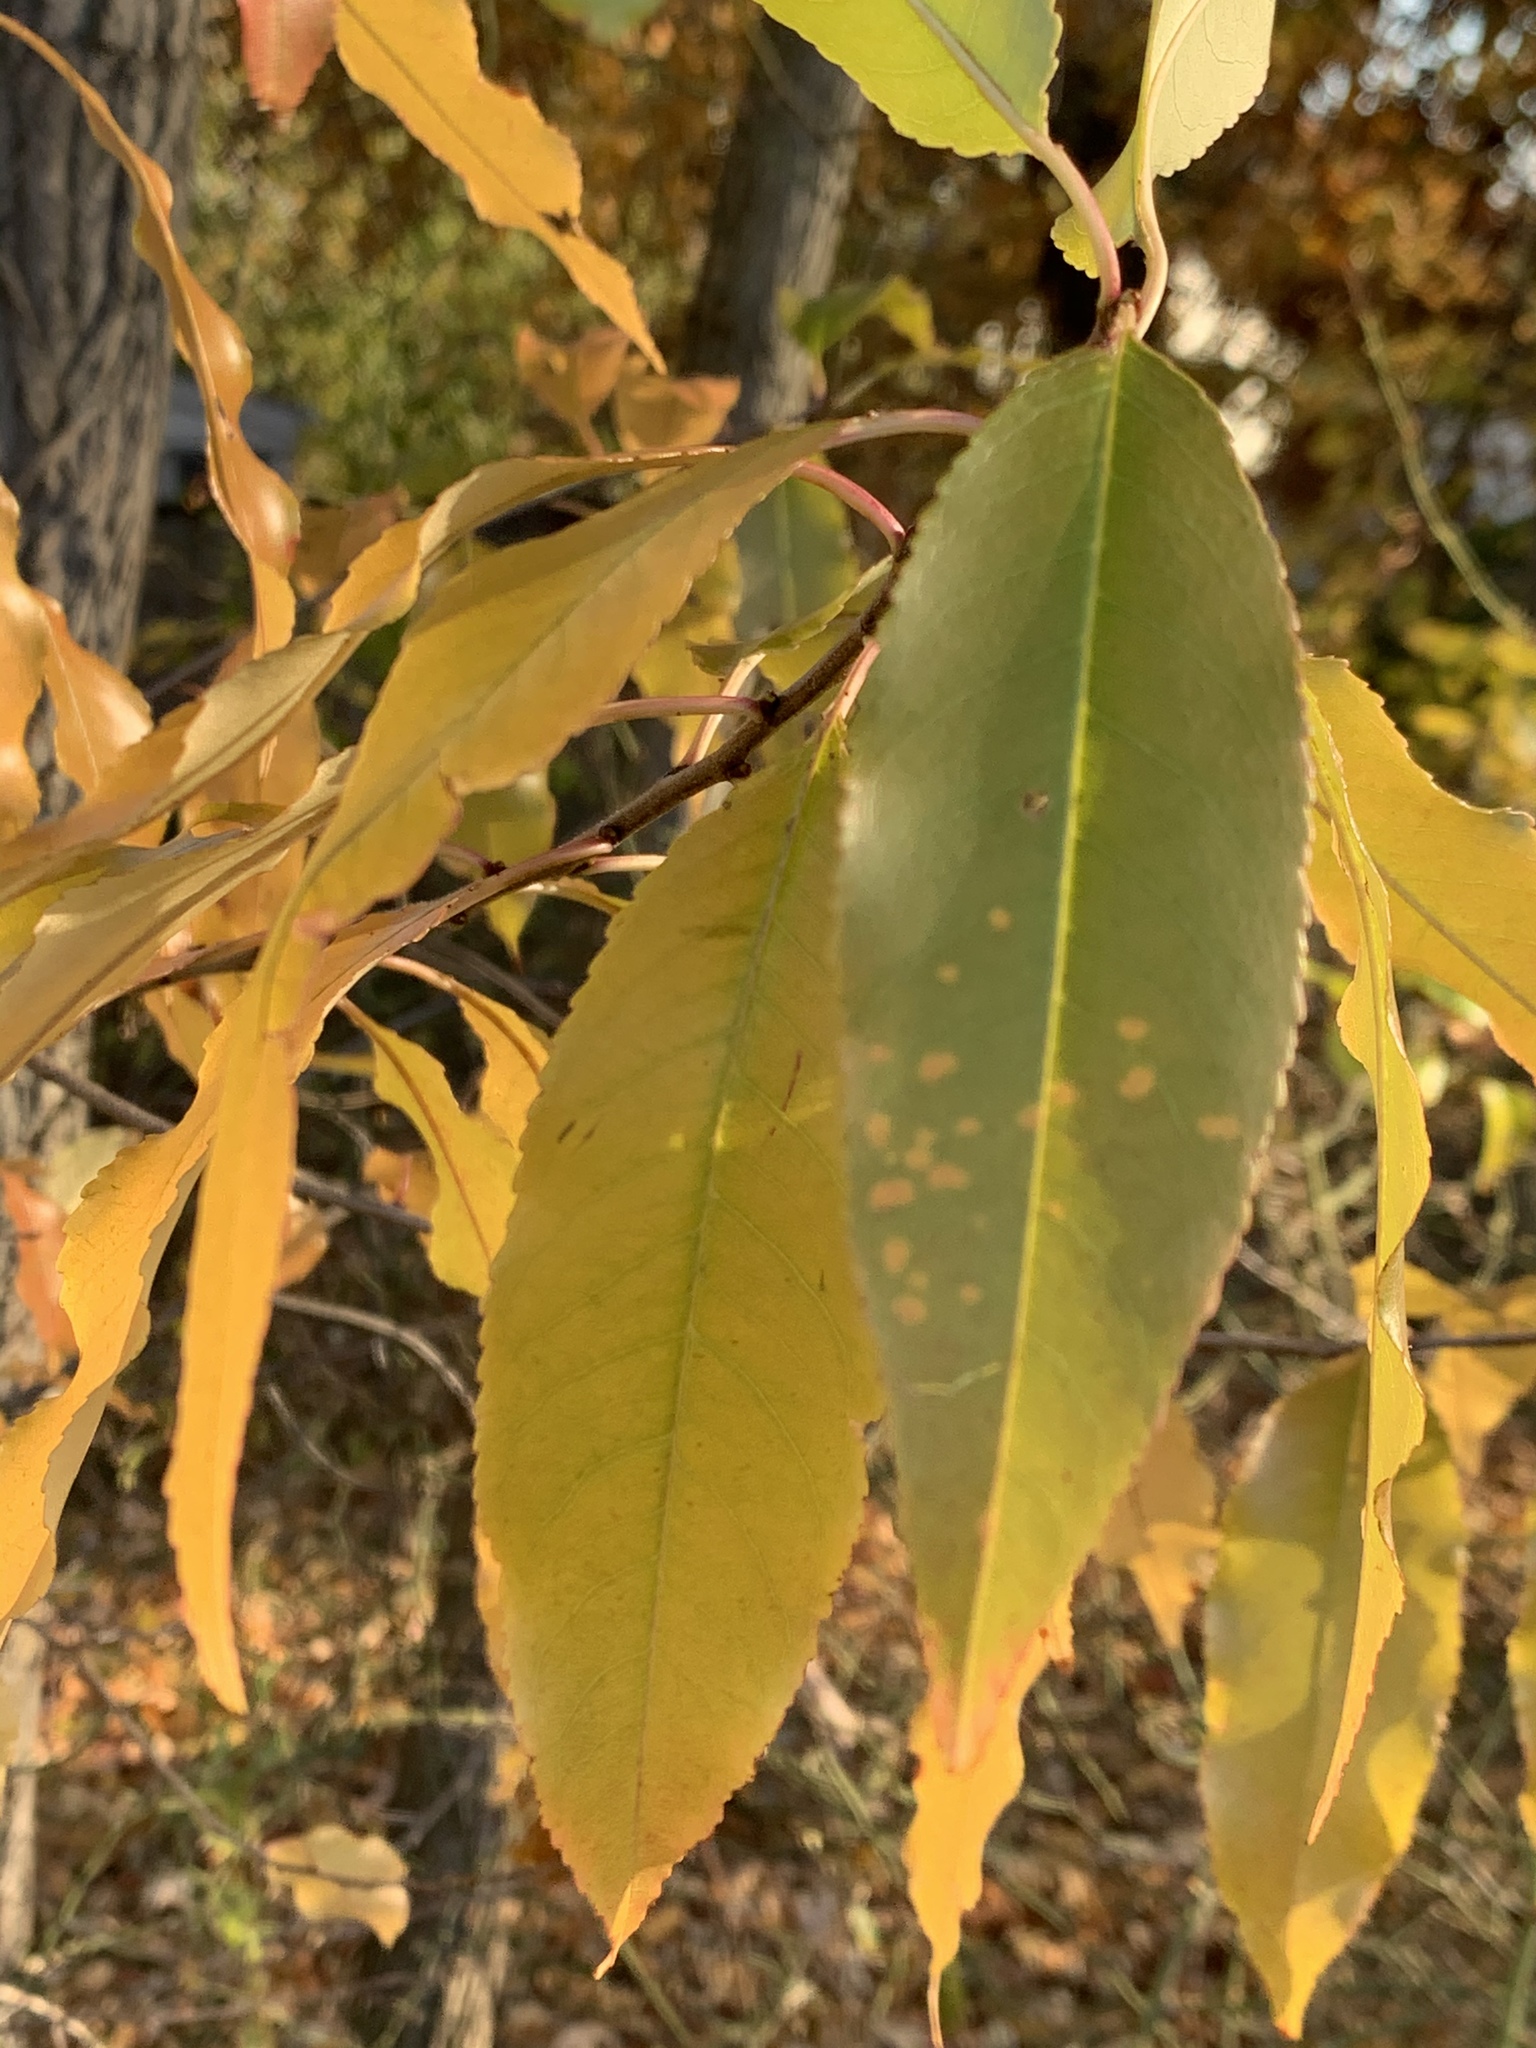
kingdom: Plantae
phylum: Tracheophyta
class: Magnoliopsida
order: Rosales
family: Rosaceae
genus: Prunus
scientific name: Prunus serotina
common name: Black cherry
